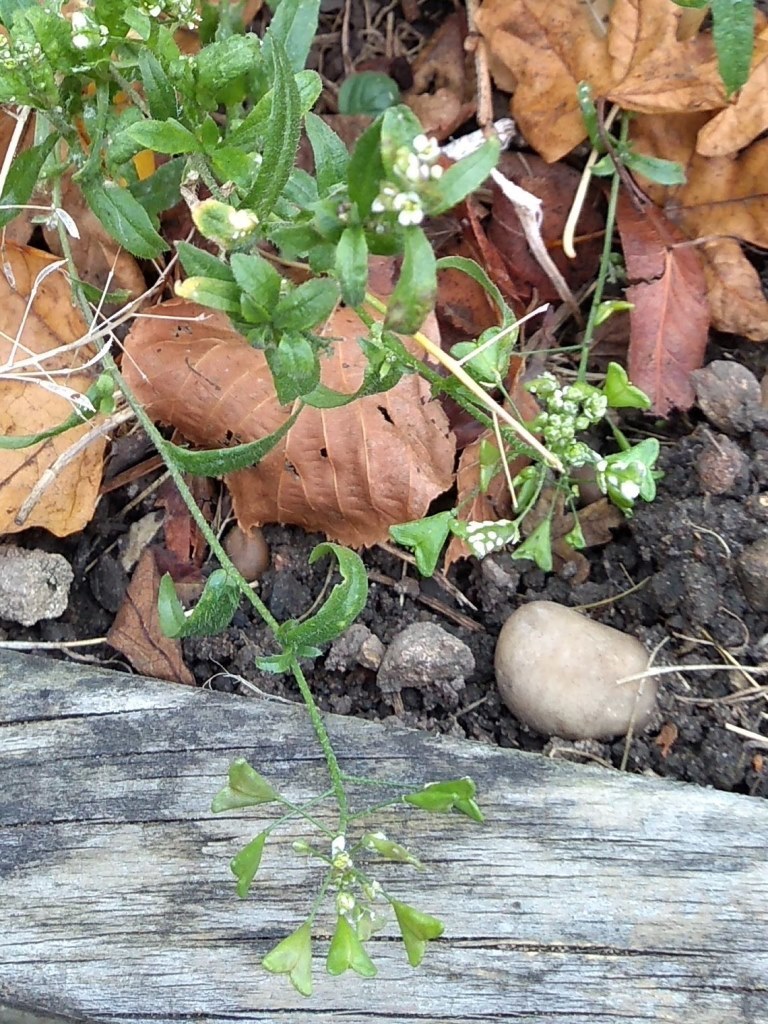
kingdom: Plantae
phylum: Tracheophyta
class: Magnoliopsida
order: Brassicales
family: Brassicaceae
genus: Capsella
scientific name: Capsella bursa-pastoris
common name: Shepherd's purse
